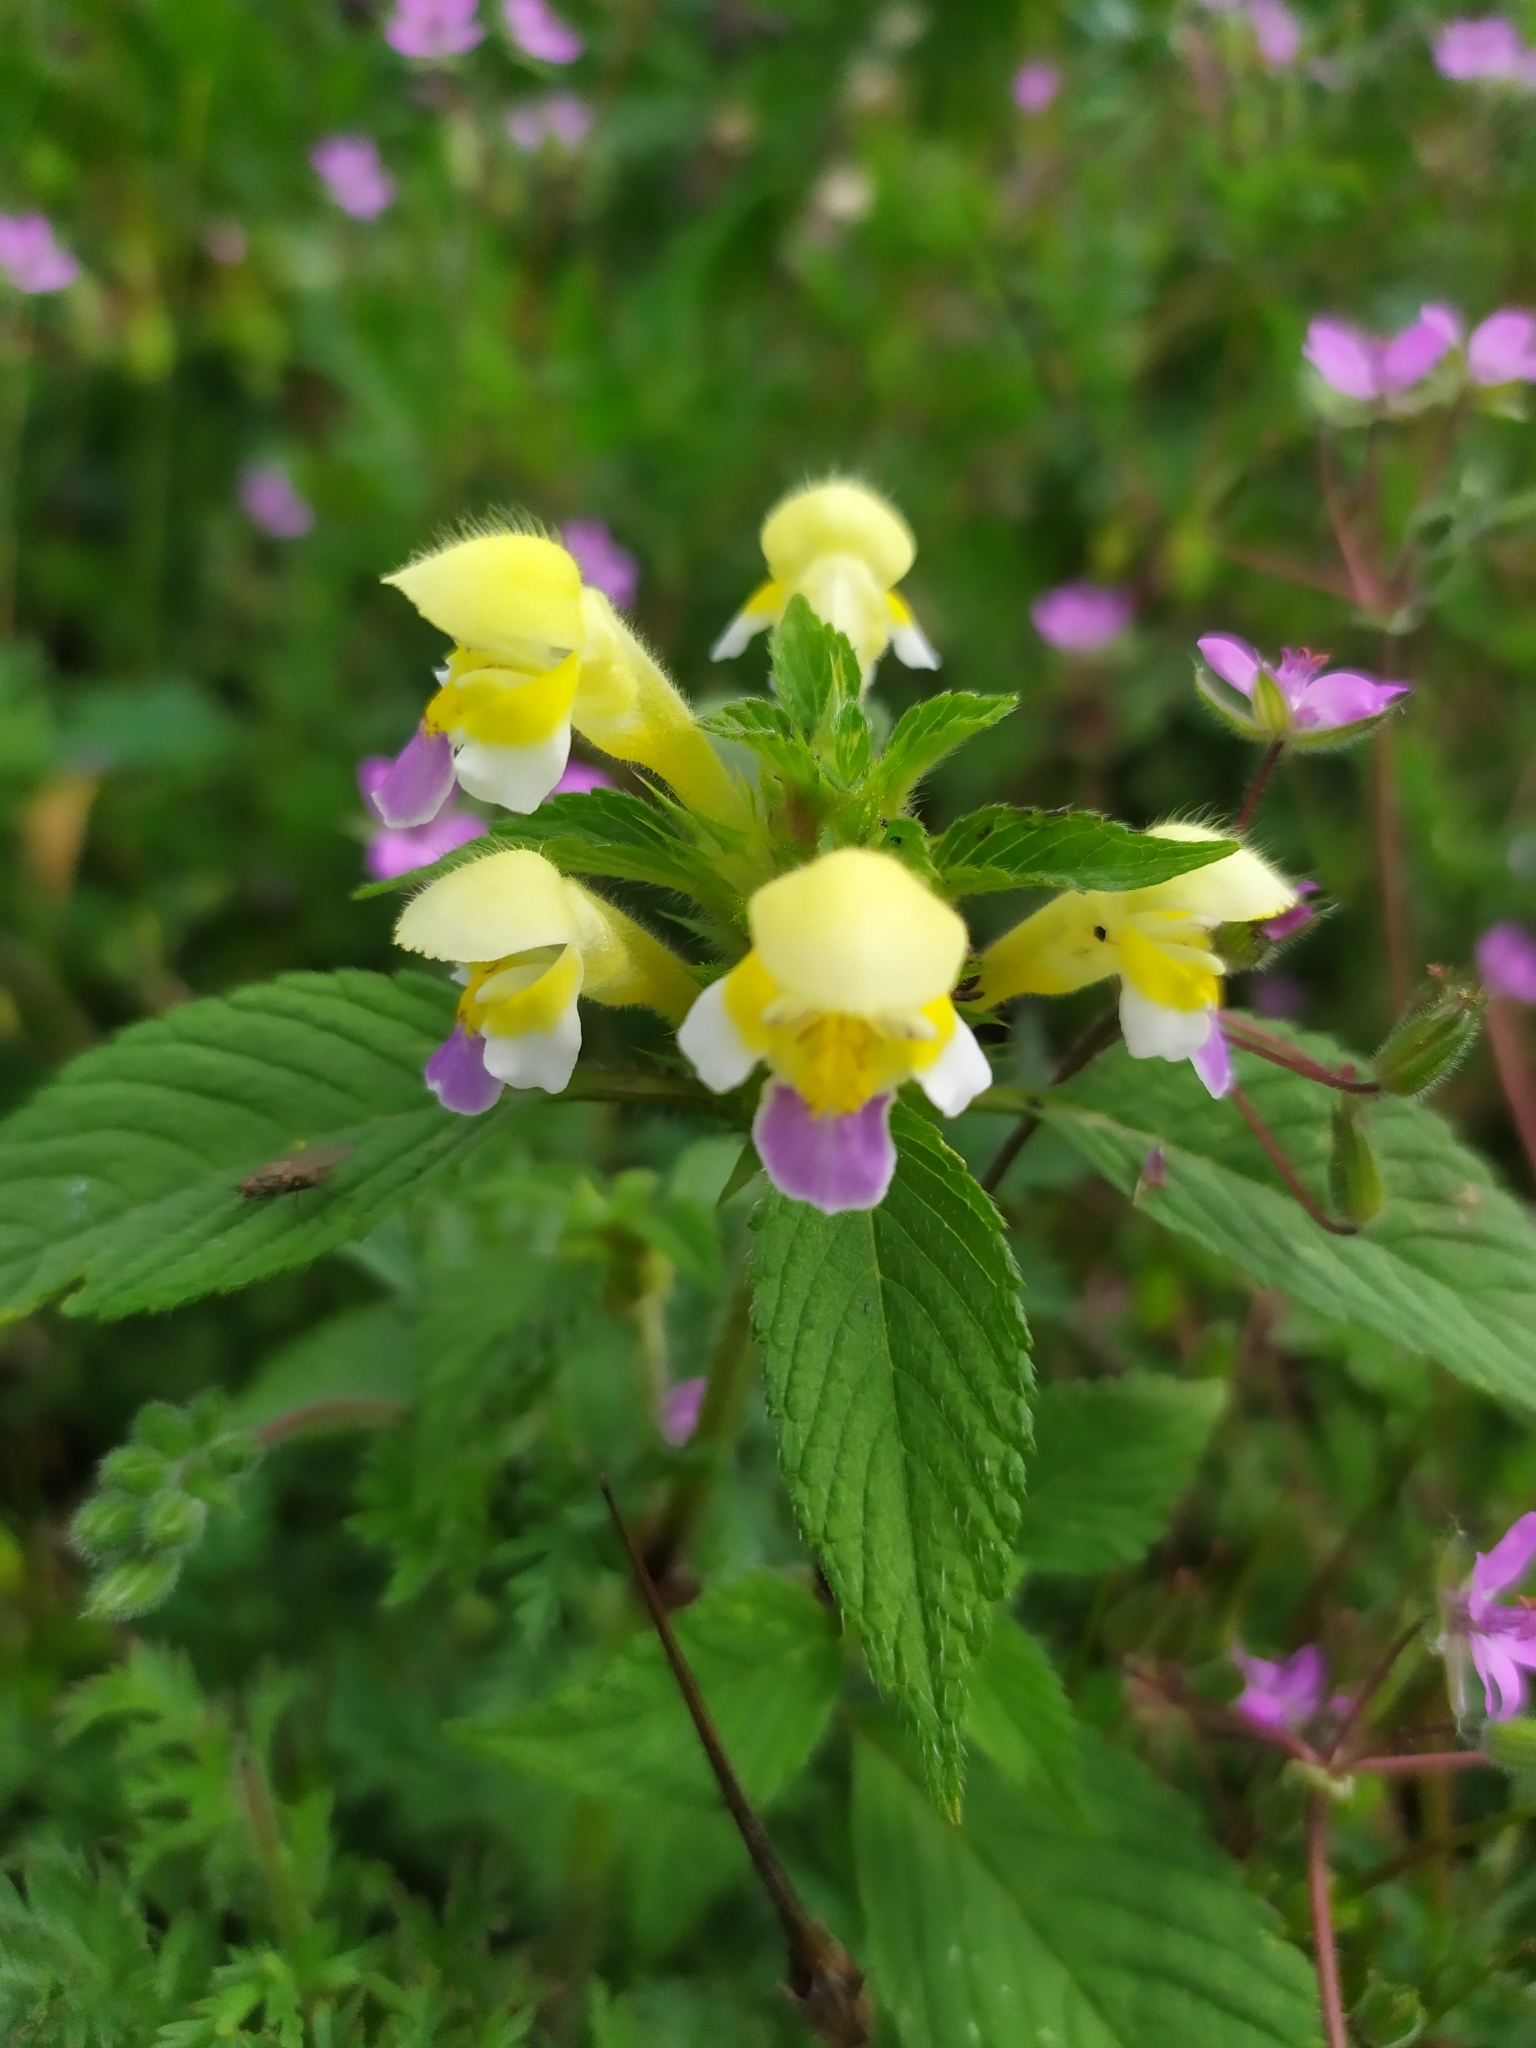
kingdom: Plantae
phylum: Tracheophyta
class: Magnoliopsida
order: Lamiales
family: Lamiaceae
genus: Galeopsis
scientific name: Galeopsis speciosa
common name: Large-flowered hemp-nettle
